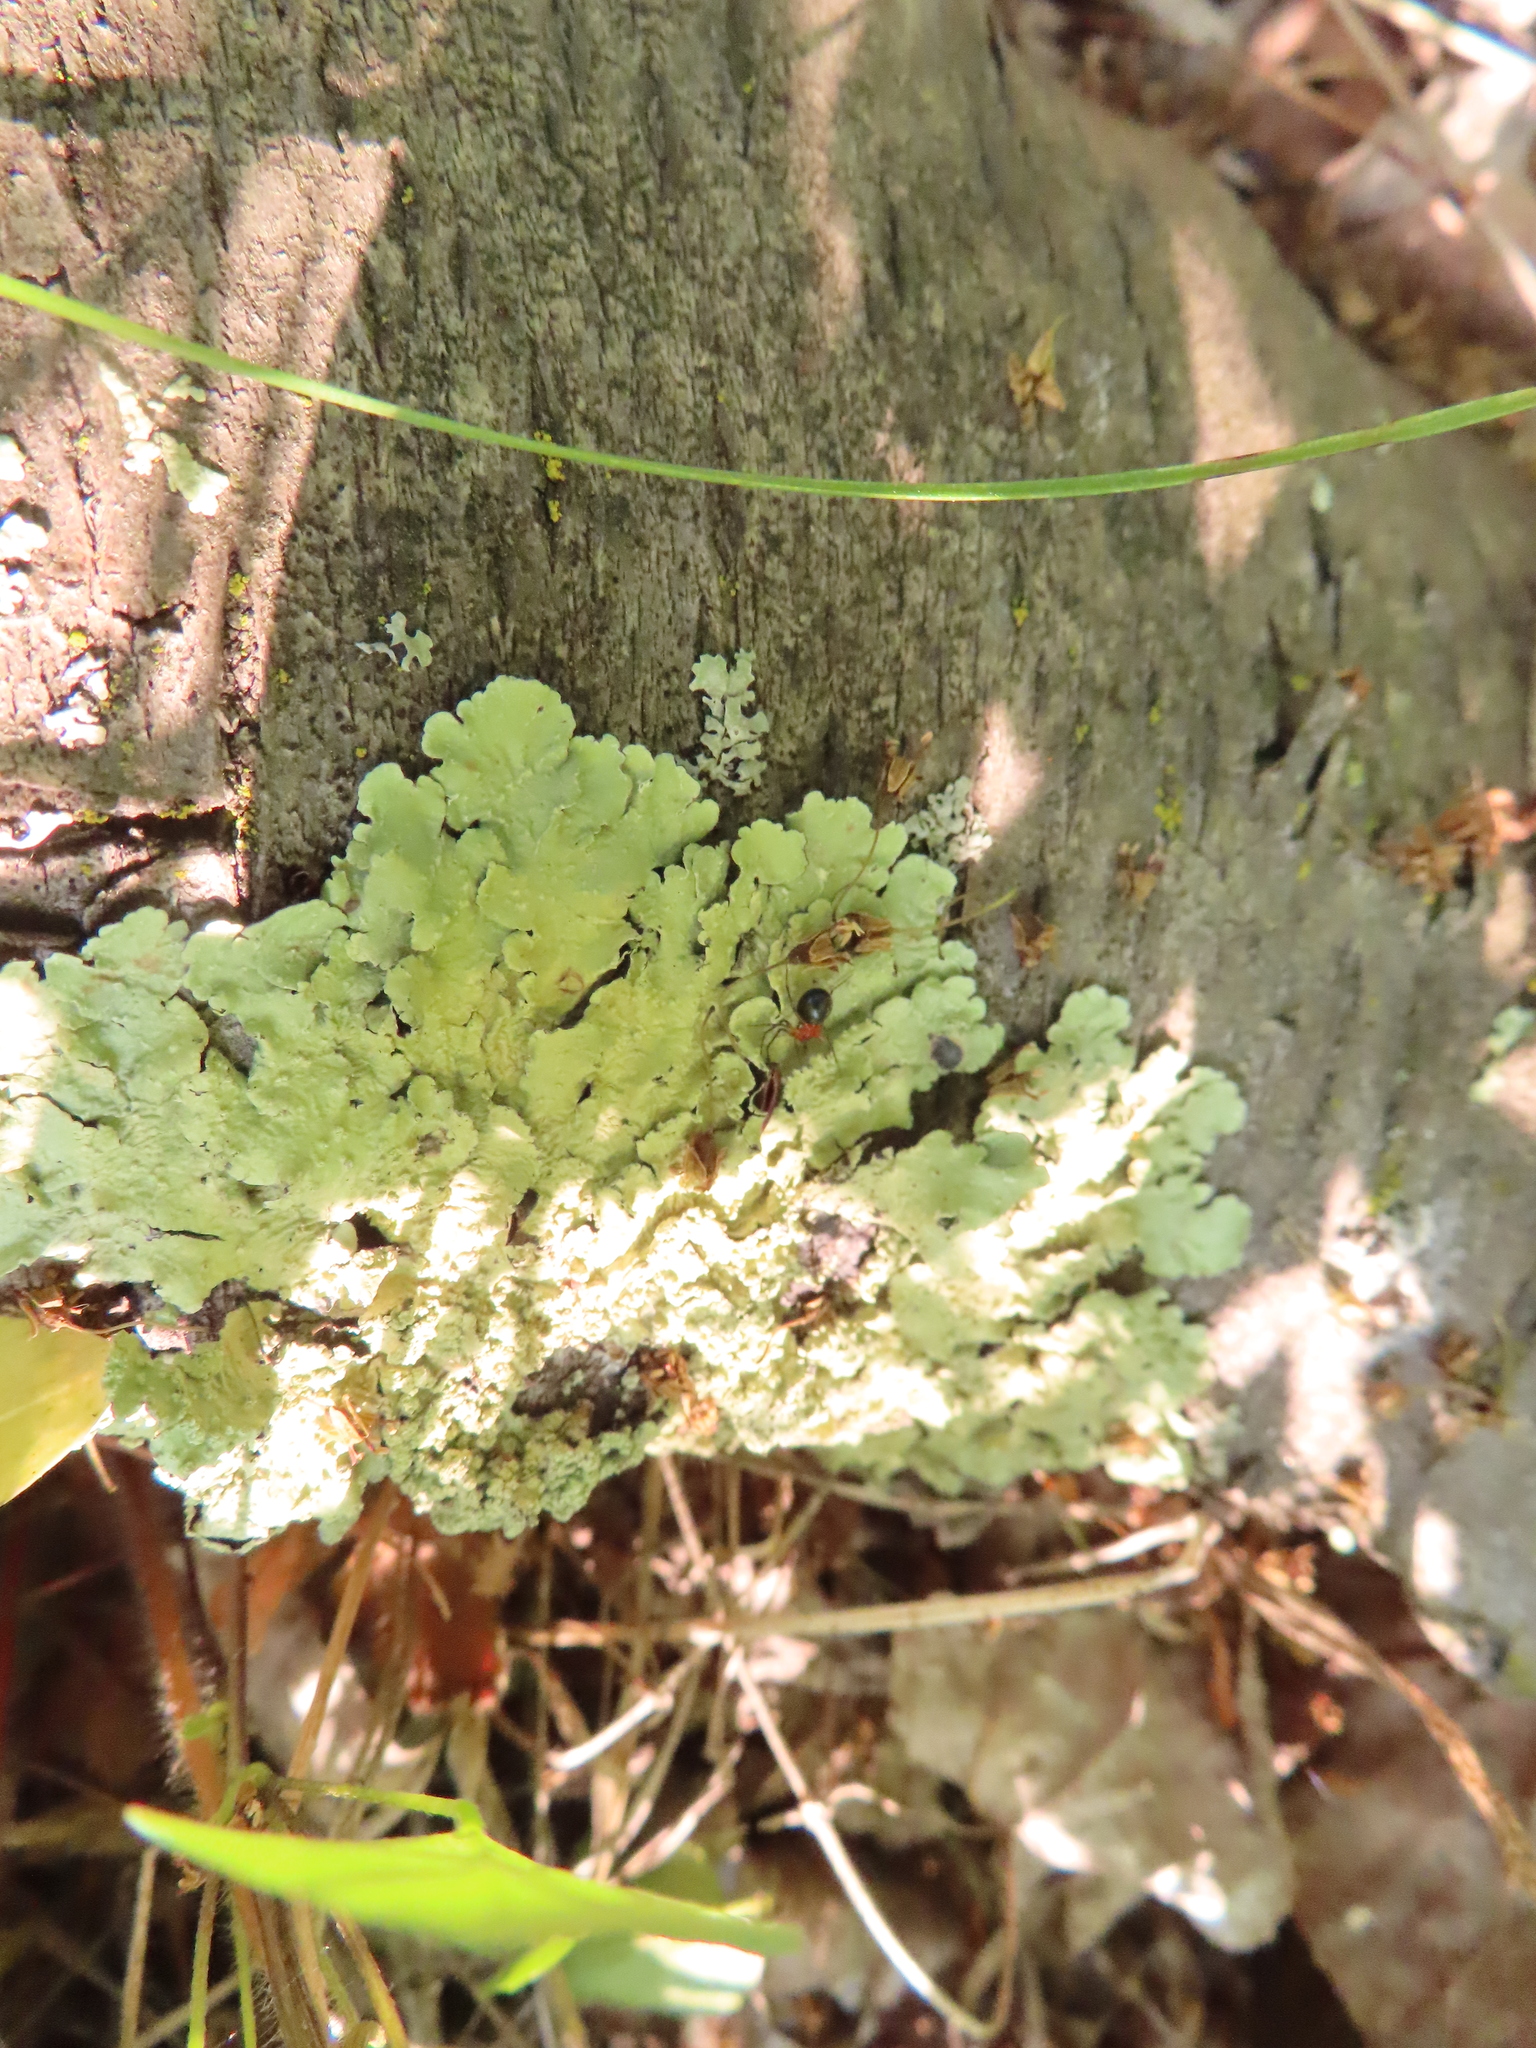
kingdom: Fungi
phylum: Ascomycota
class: Lecanoromycetes
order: Lecanorales
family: Parmeliaceae
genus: Flavoparmelia
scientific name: Flavoparmelia caperata
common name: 40-mile per hour lichen
